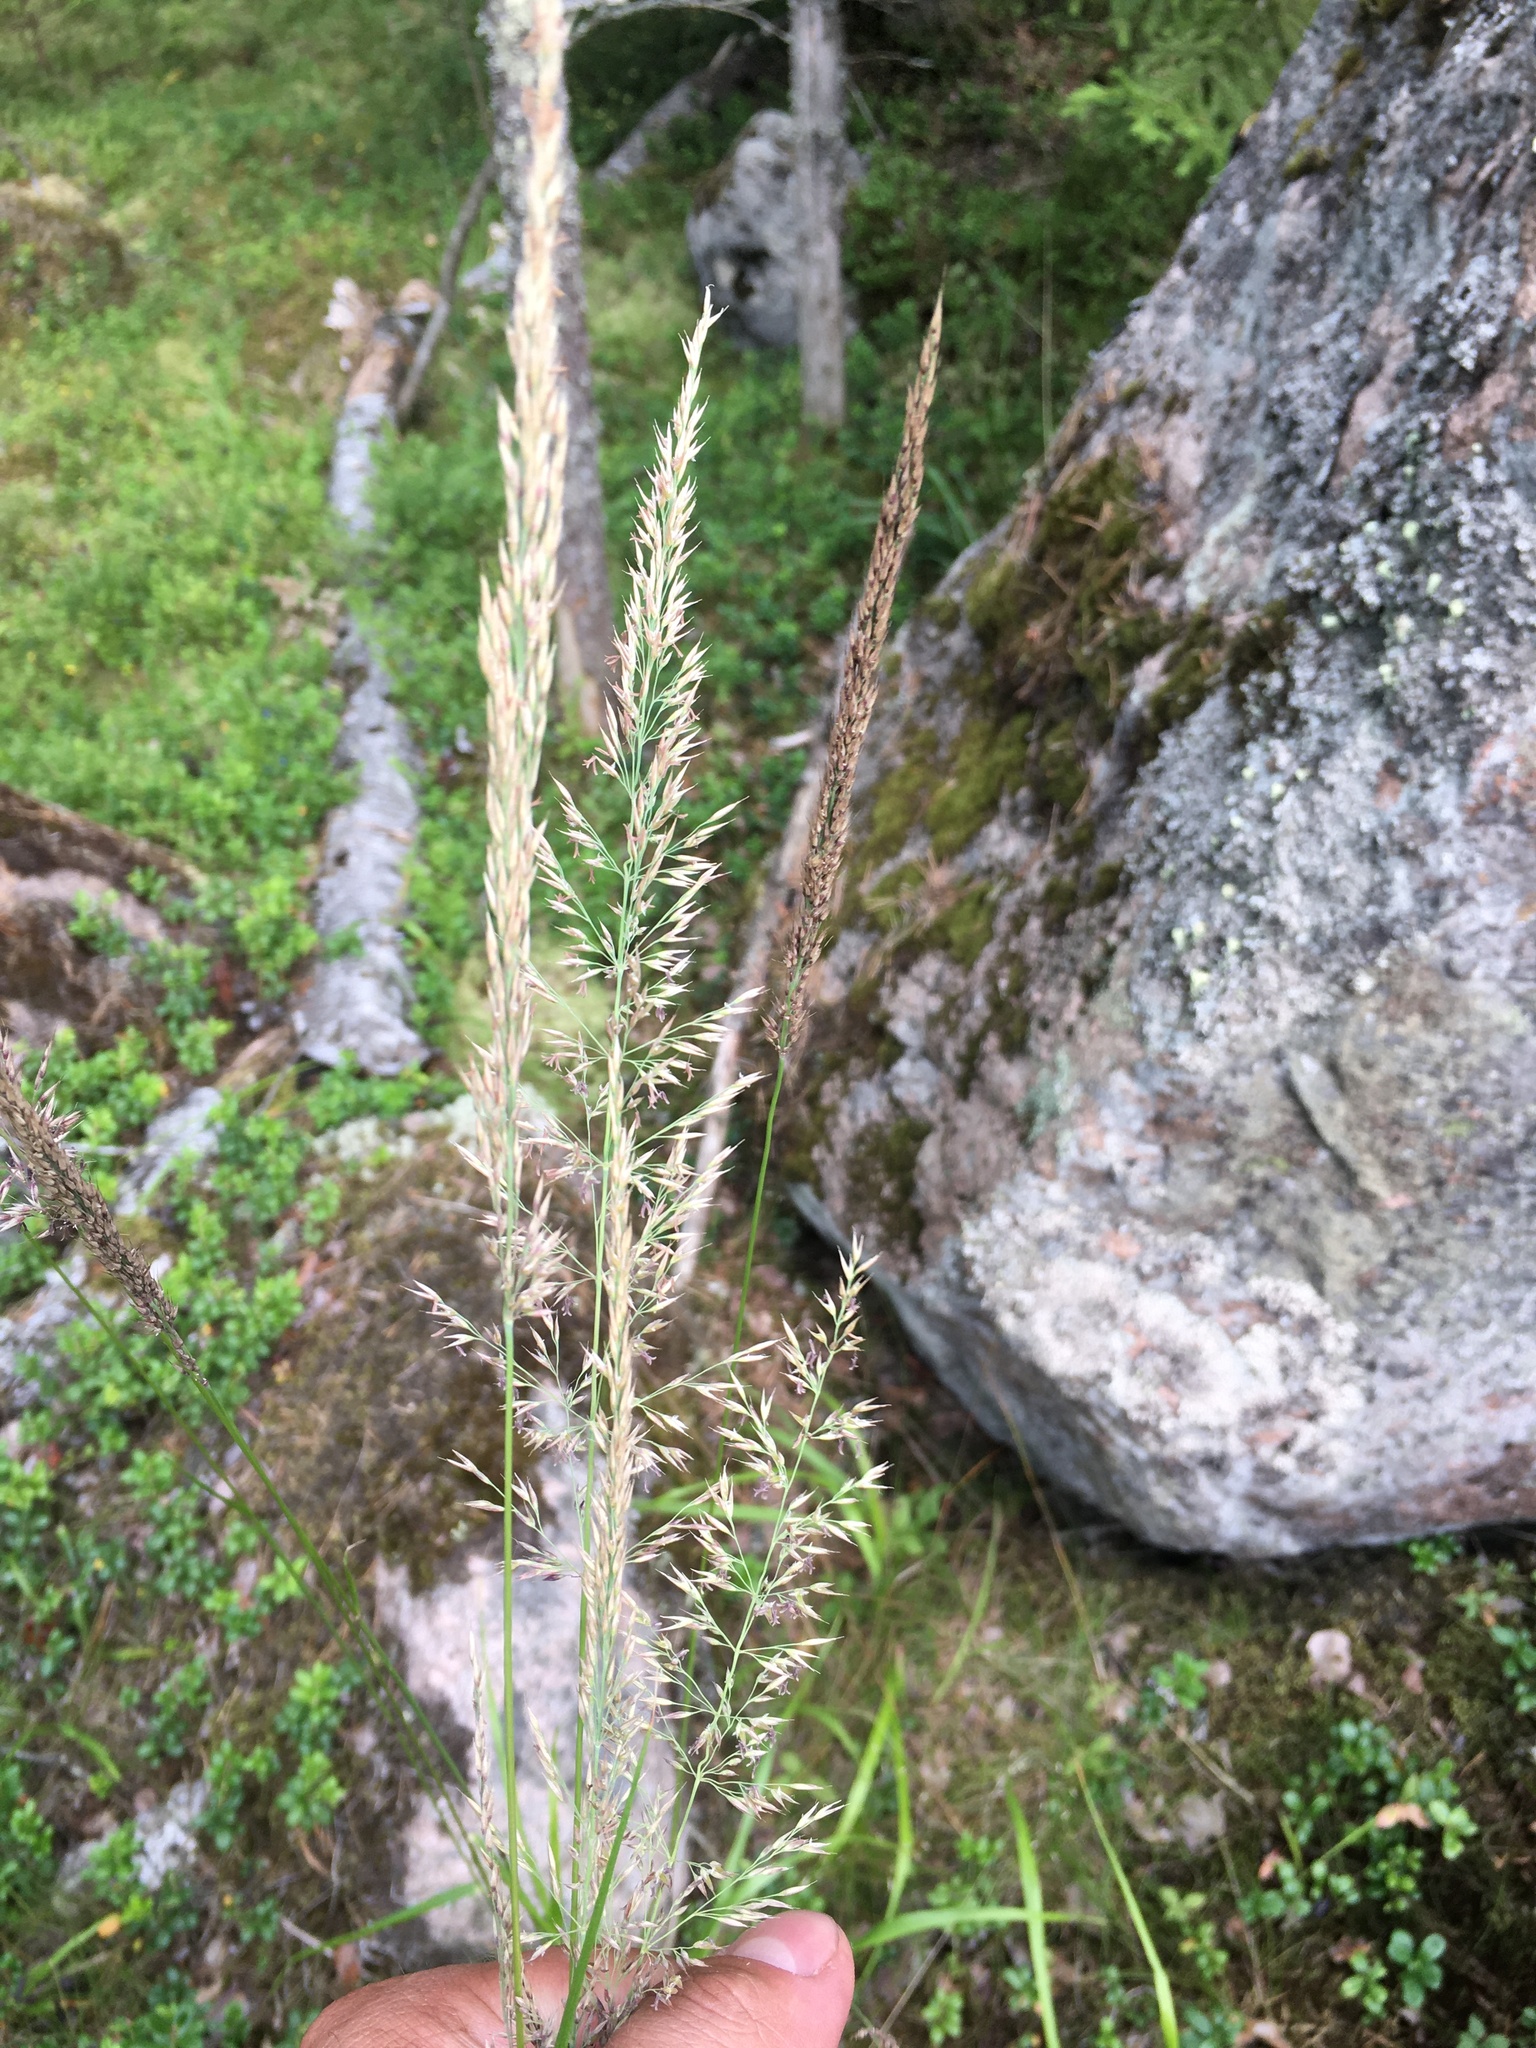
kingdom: Plantae
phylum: Tracheophyta
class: Liliopsida
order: Poales
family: Poaceae
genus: Calamagrostis
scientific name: Calamagrostis arundinacea
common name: Metskastik
